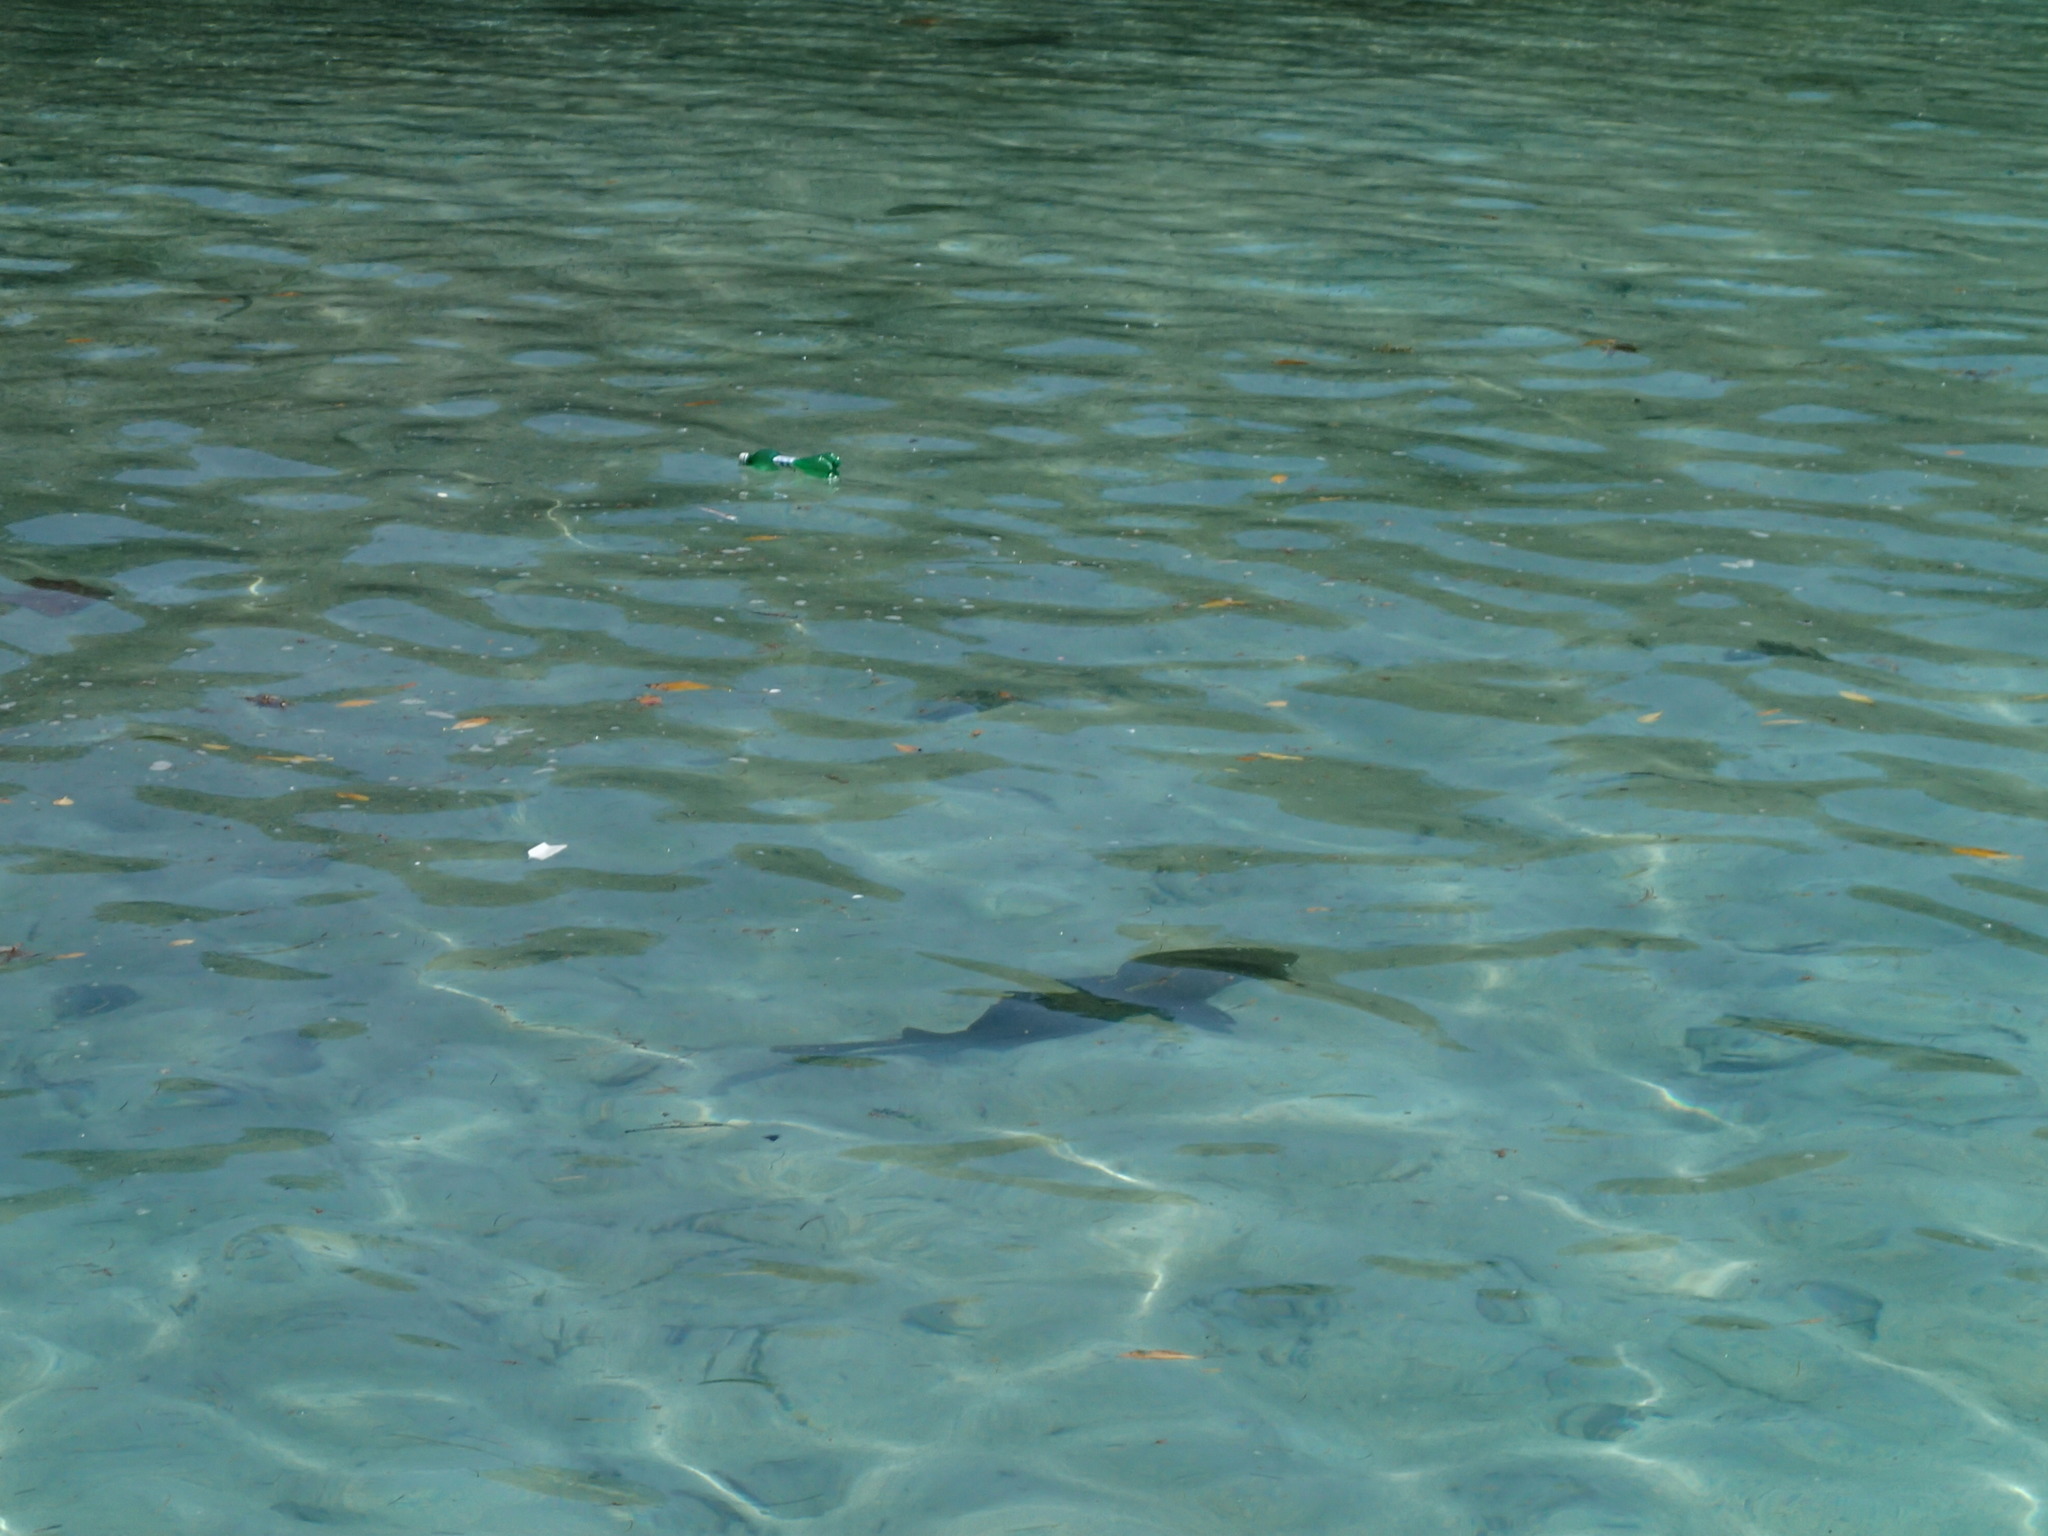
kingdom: Animalia
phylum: Chordata
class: Elasmobranchii
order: Orectolobiformes
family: Ginglymostomatidae
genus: Ginglymostoma
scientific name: Ginglymostoma cirratum
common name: Nurse shark
